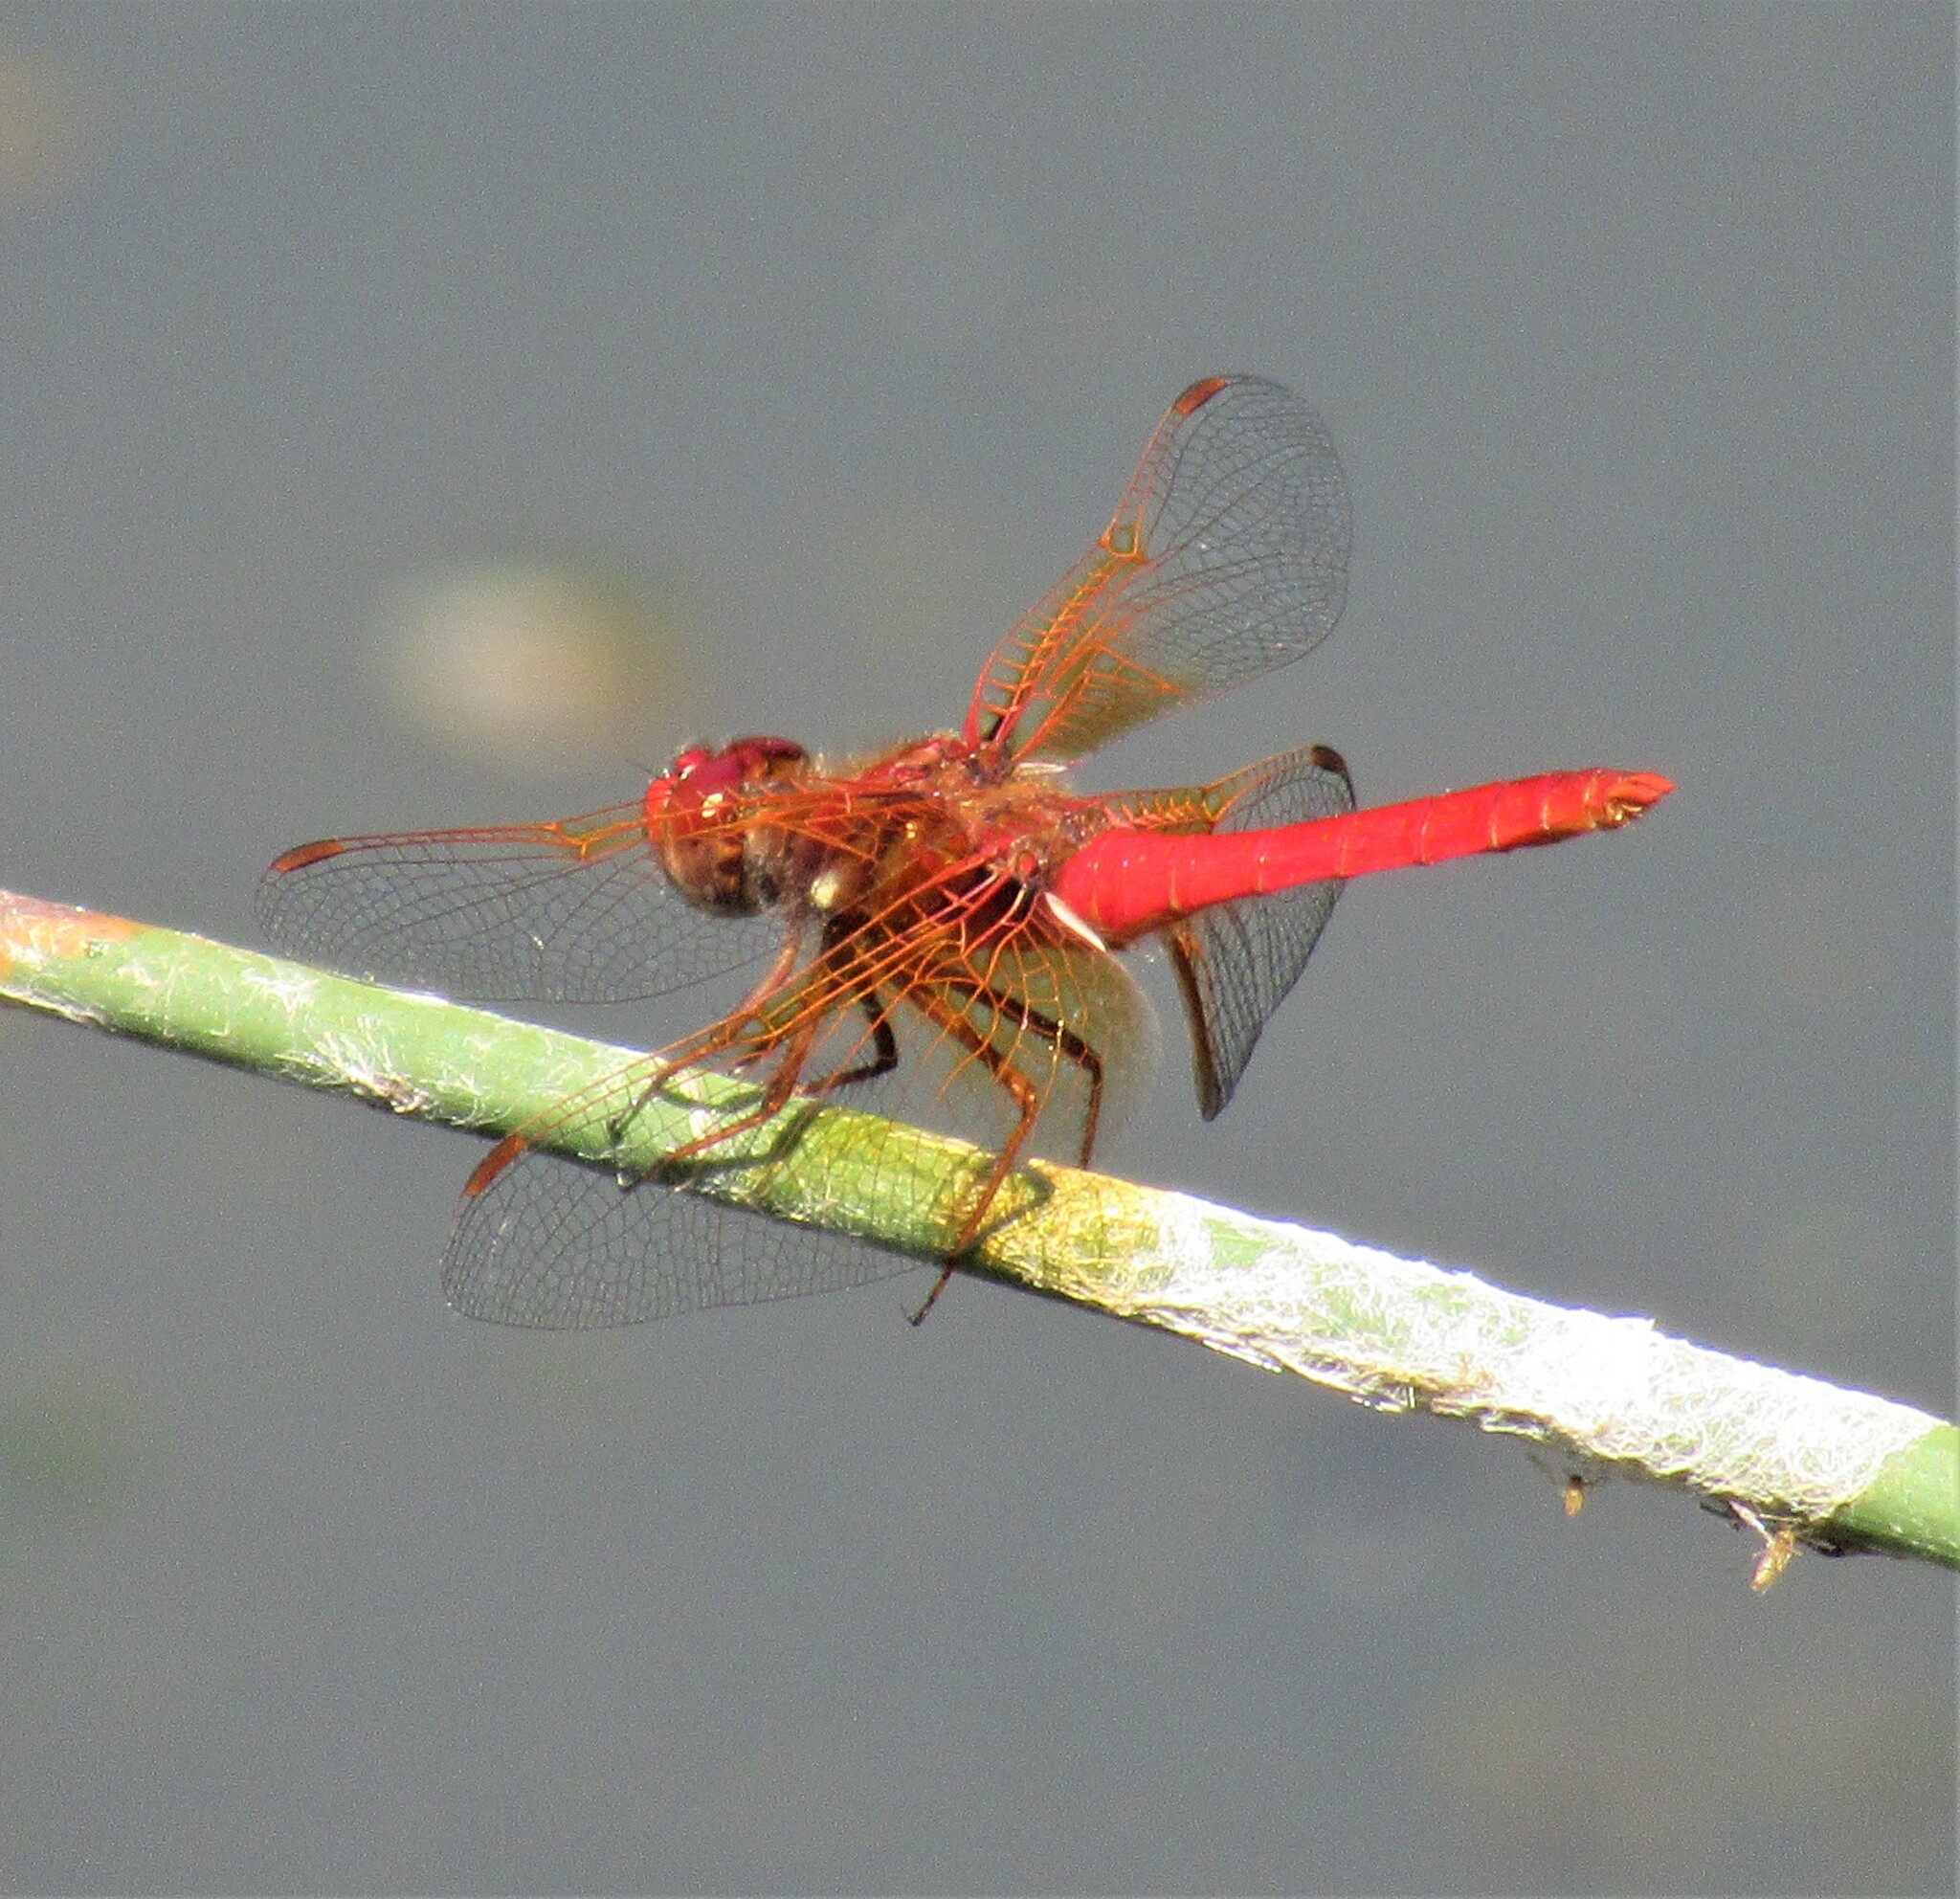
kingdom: Animalia
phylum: Arthropoda
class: Insecta
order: Odonata
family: Libellulidae
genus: Sympetrum
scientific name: Sympetrum illotum
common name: Cardinal meadowhawk
